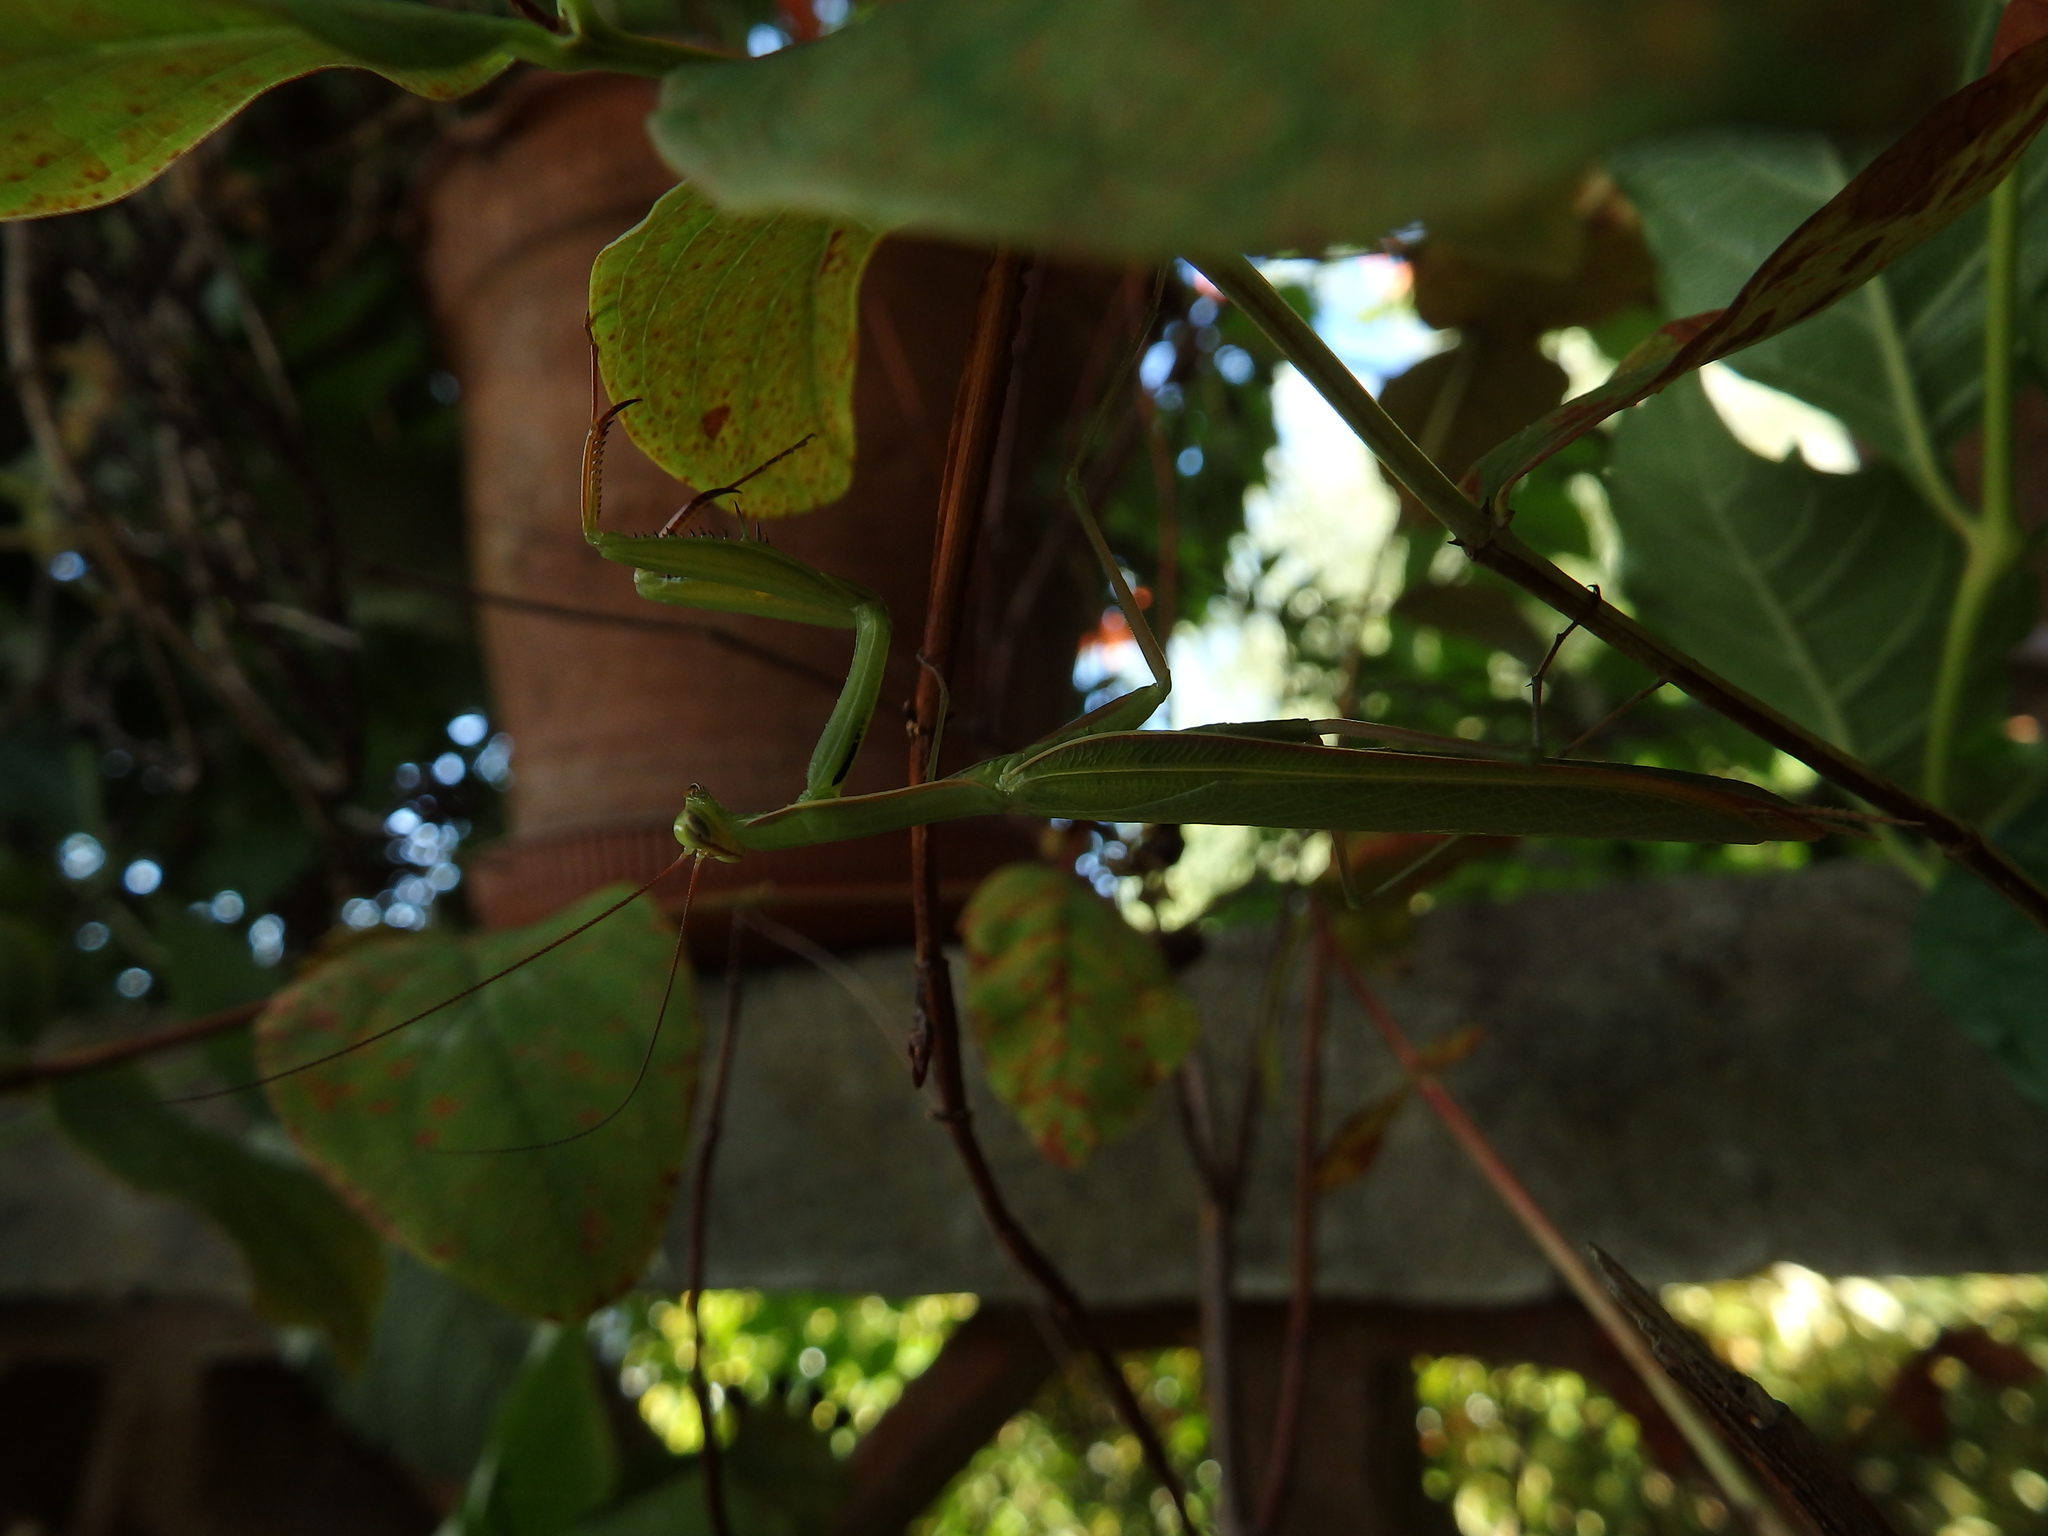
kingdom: Animalia
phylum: Arthropoda
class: Insecta
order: Mantodea
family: Mantidae
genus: Mantis
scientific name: Mantis religiosa
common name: Praying mantis
